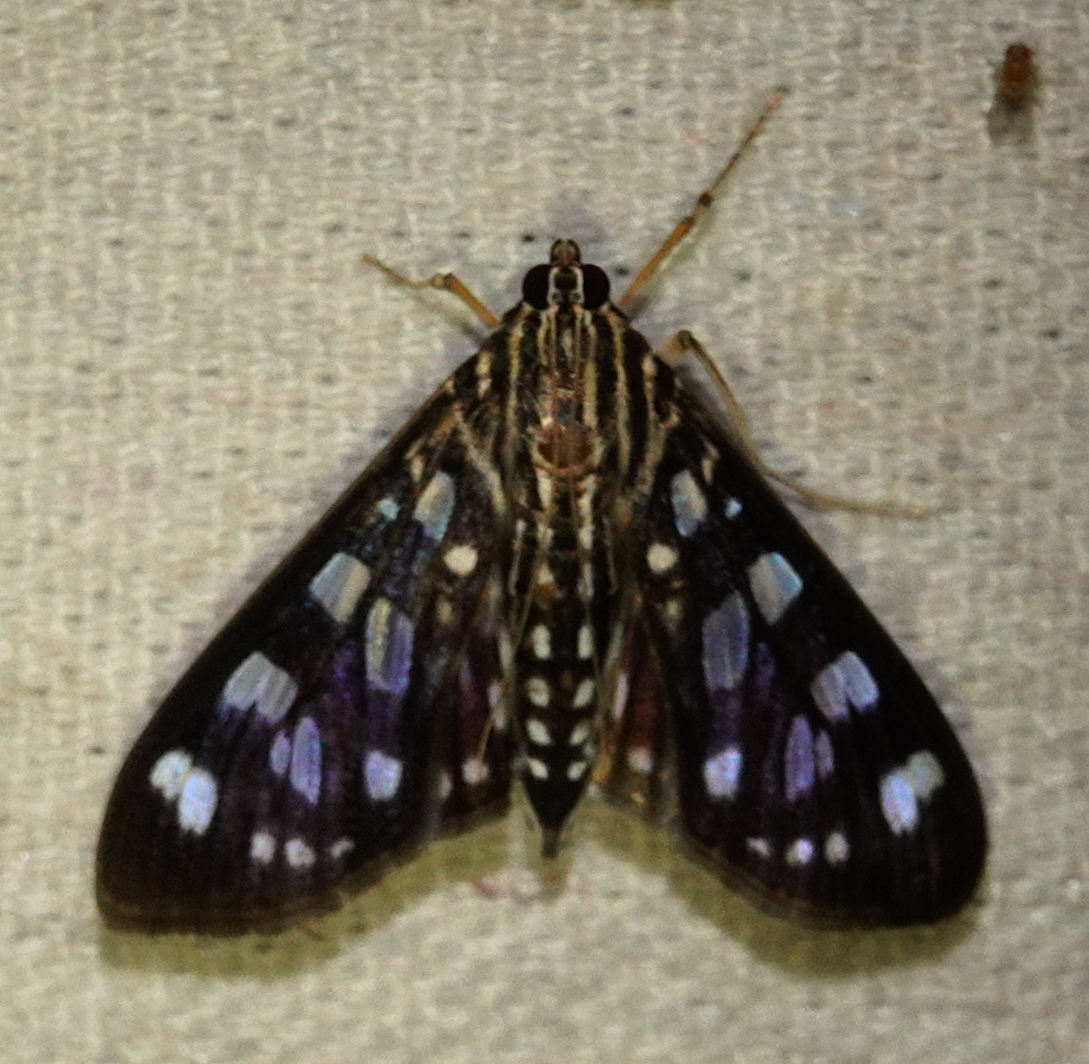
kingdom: Animalia
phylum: Arthropoda
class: Insecta
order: Lepidoptera
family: Crambidae
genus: Pygospila
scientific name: Pygospila tyres
